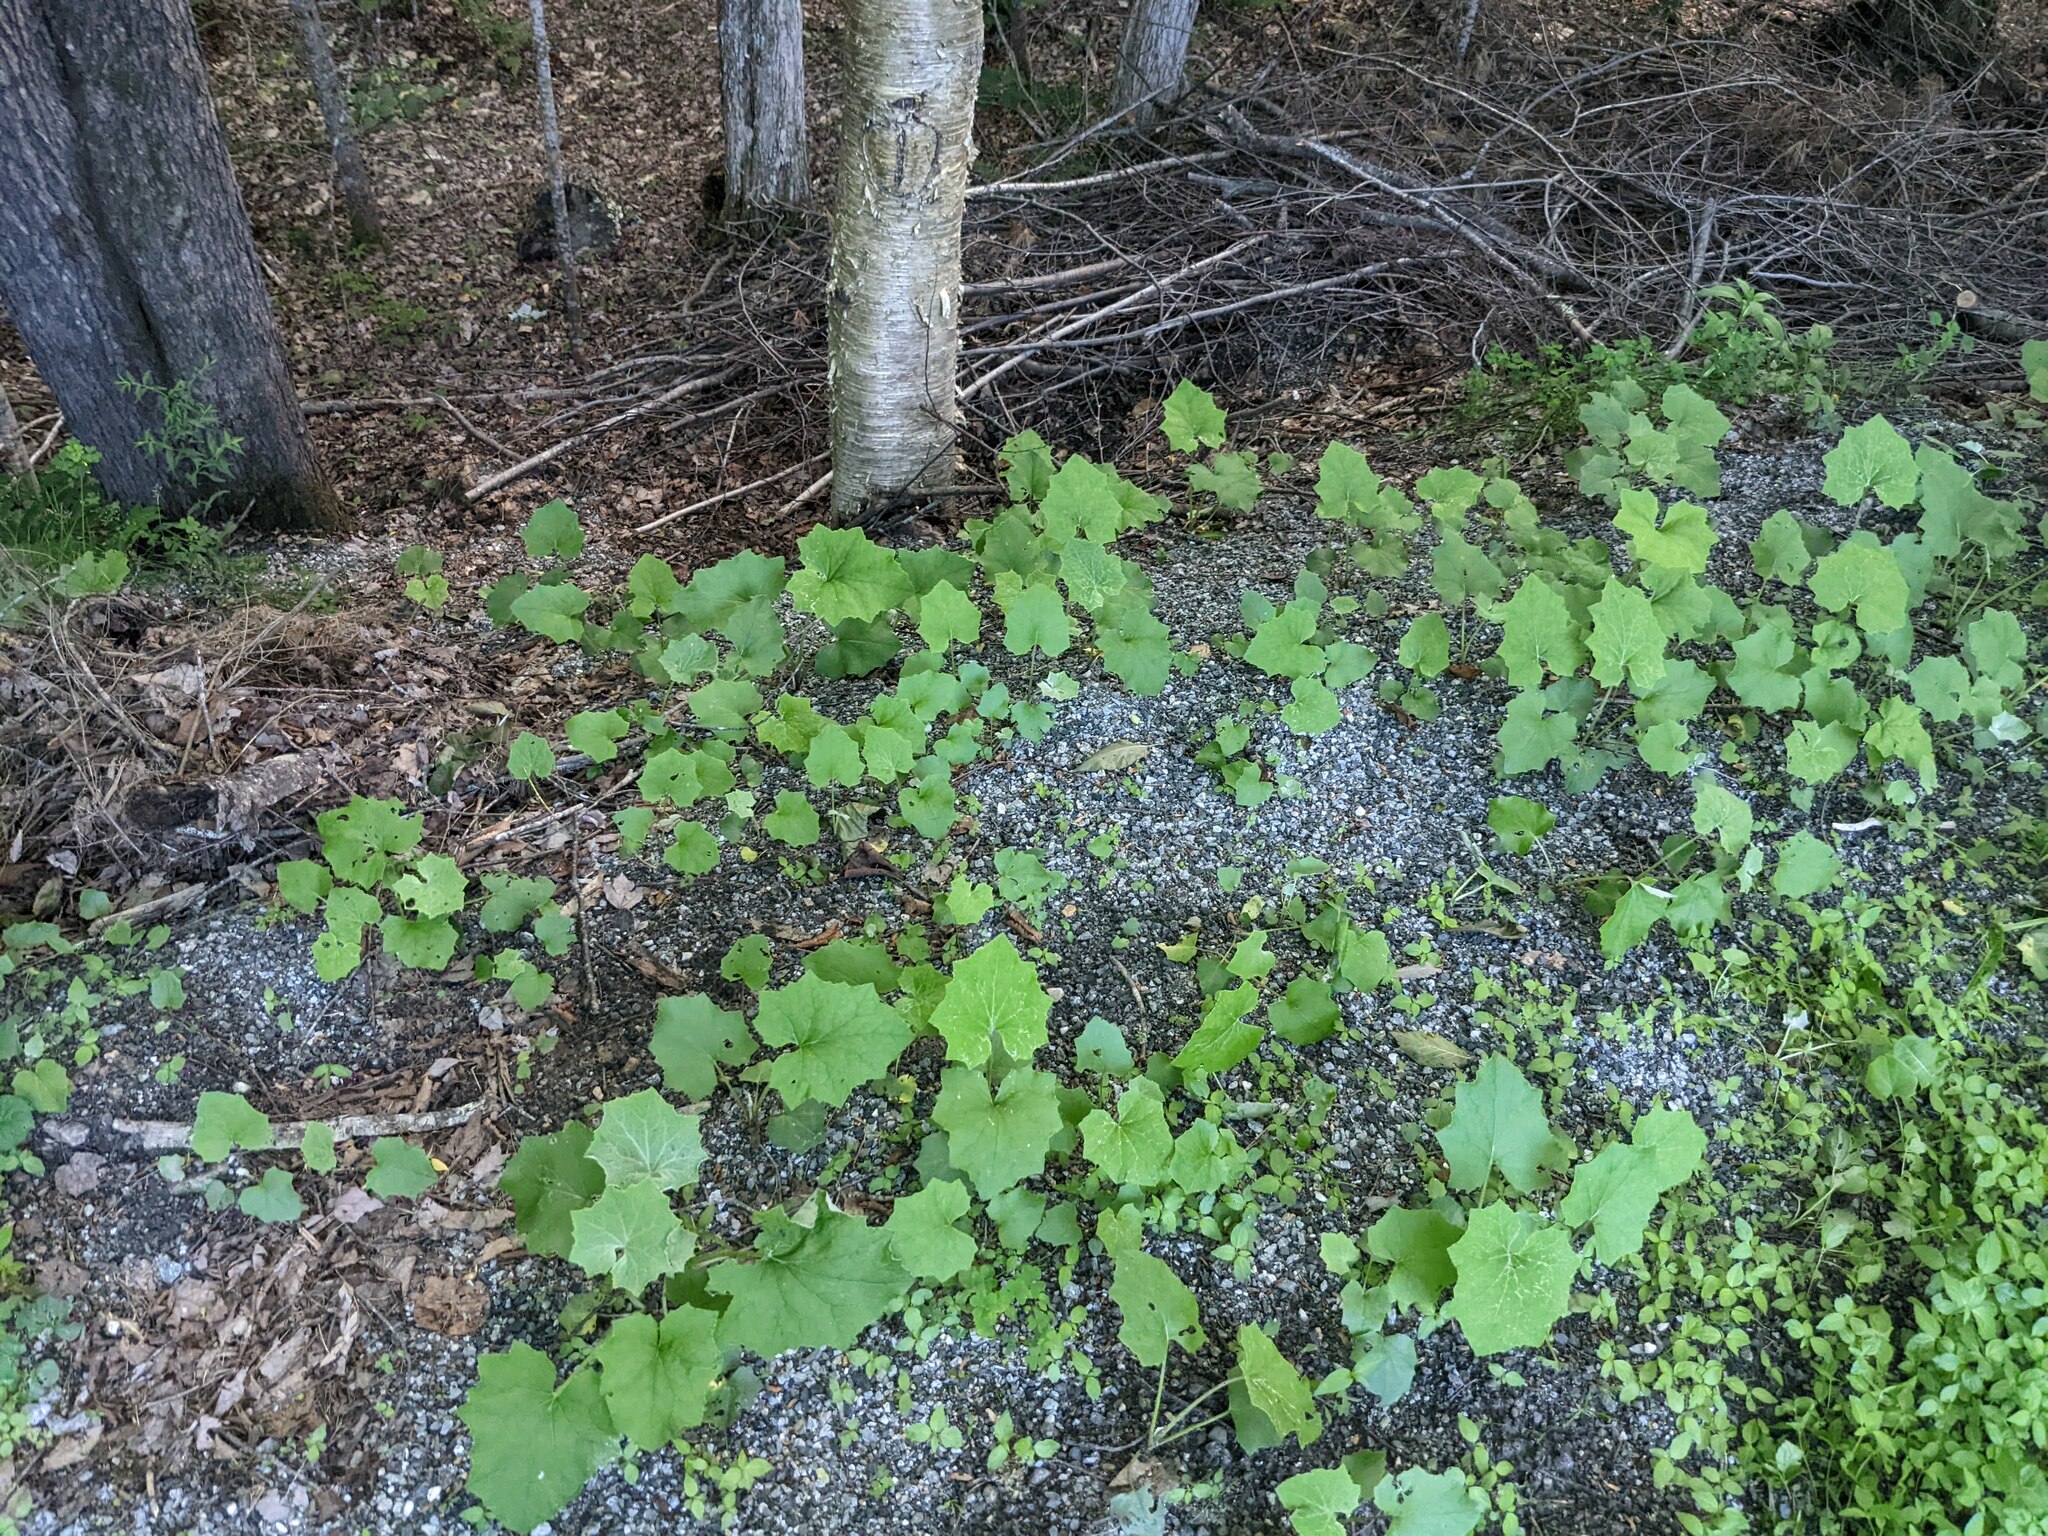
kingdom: Plantae
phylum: Tracheophyta
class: Magnoliopsida
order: Asterales
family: Asteraceae
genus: Tussilago
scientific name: Tussilago farfara
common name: Coltsfoot
